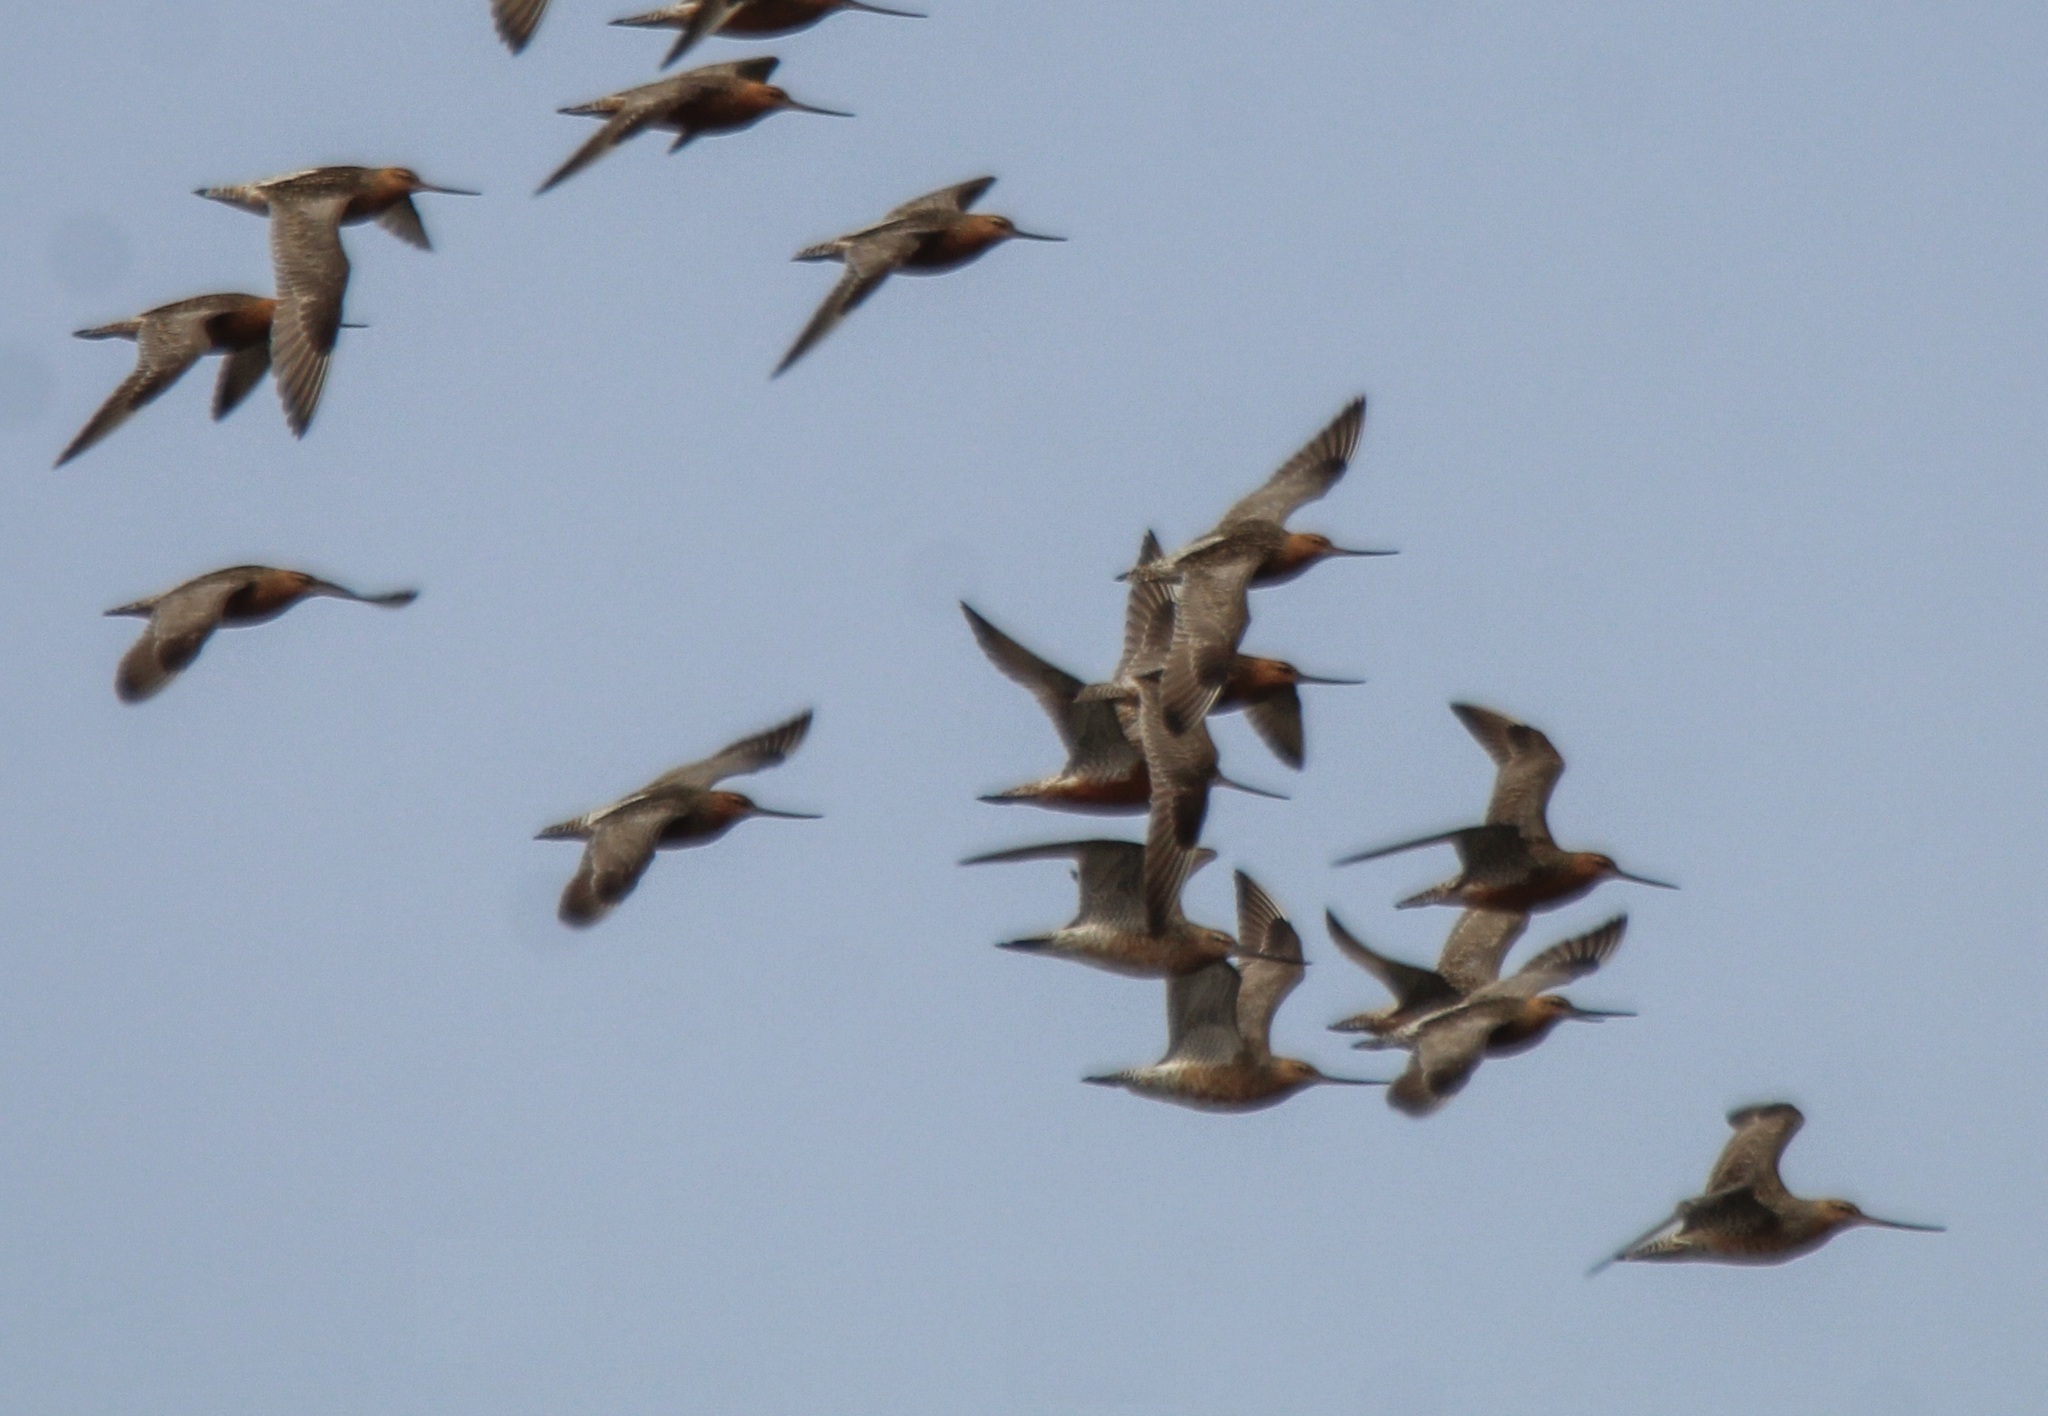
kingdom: Animalia
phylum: Chordata
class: Aves
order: Charadriiformes
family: Scolopacidae
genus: Limosa
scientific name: Limosa lapponica
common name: Bar-tailed godwit
